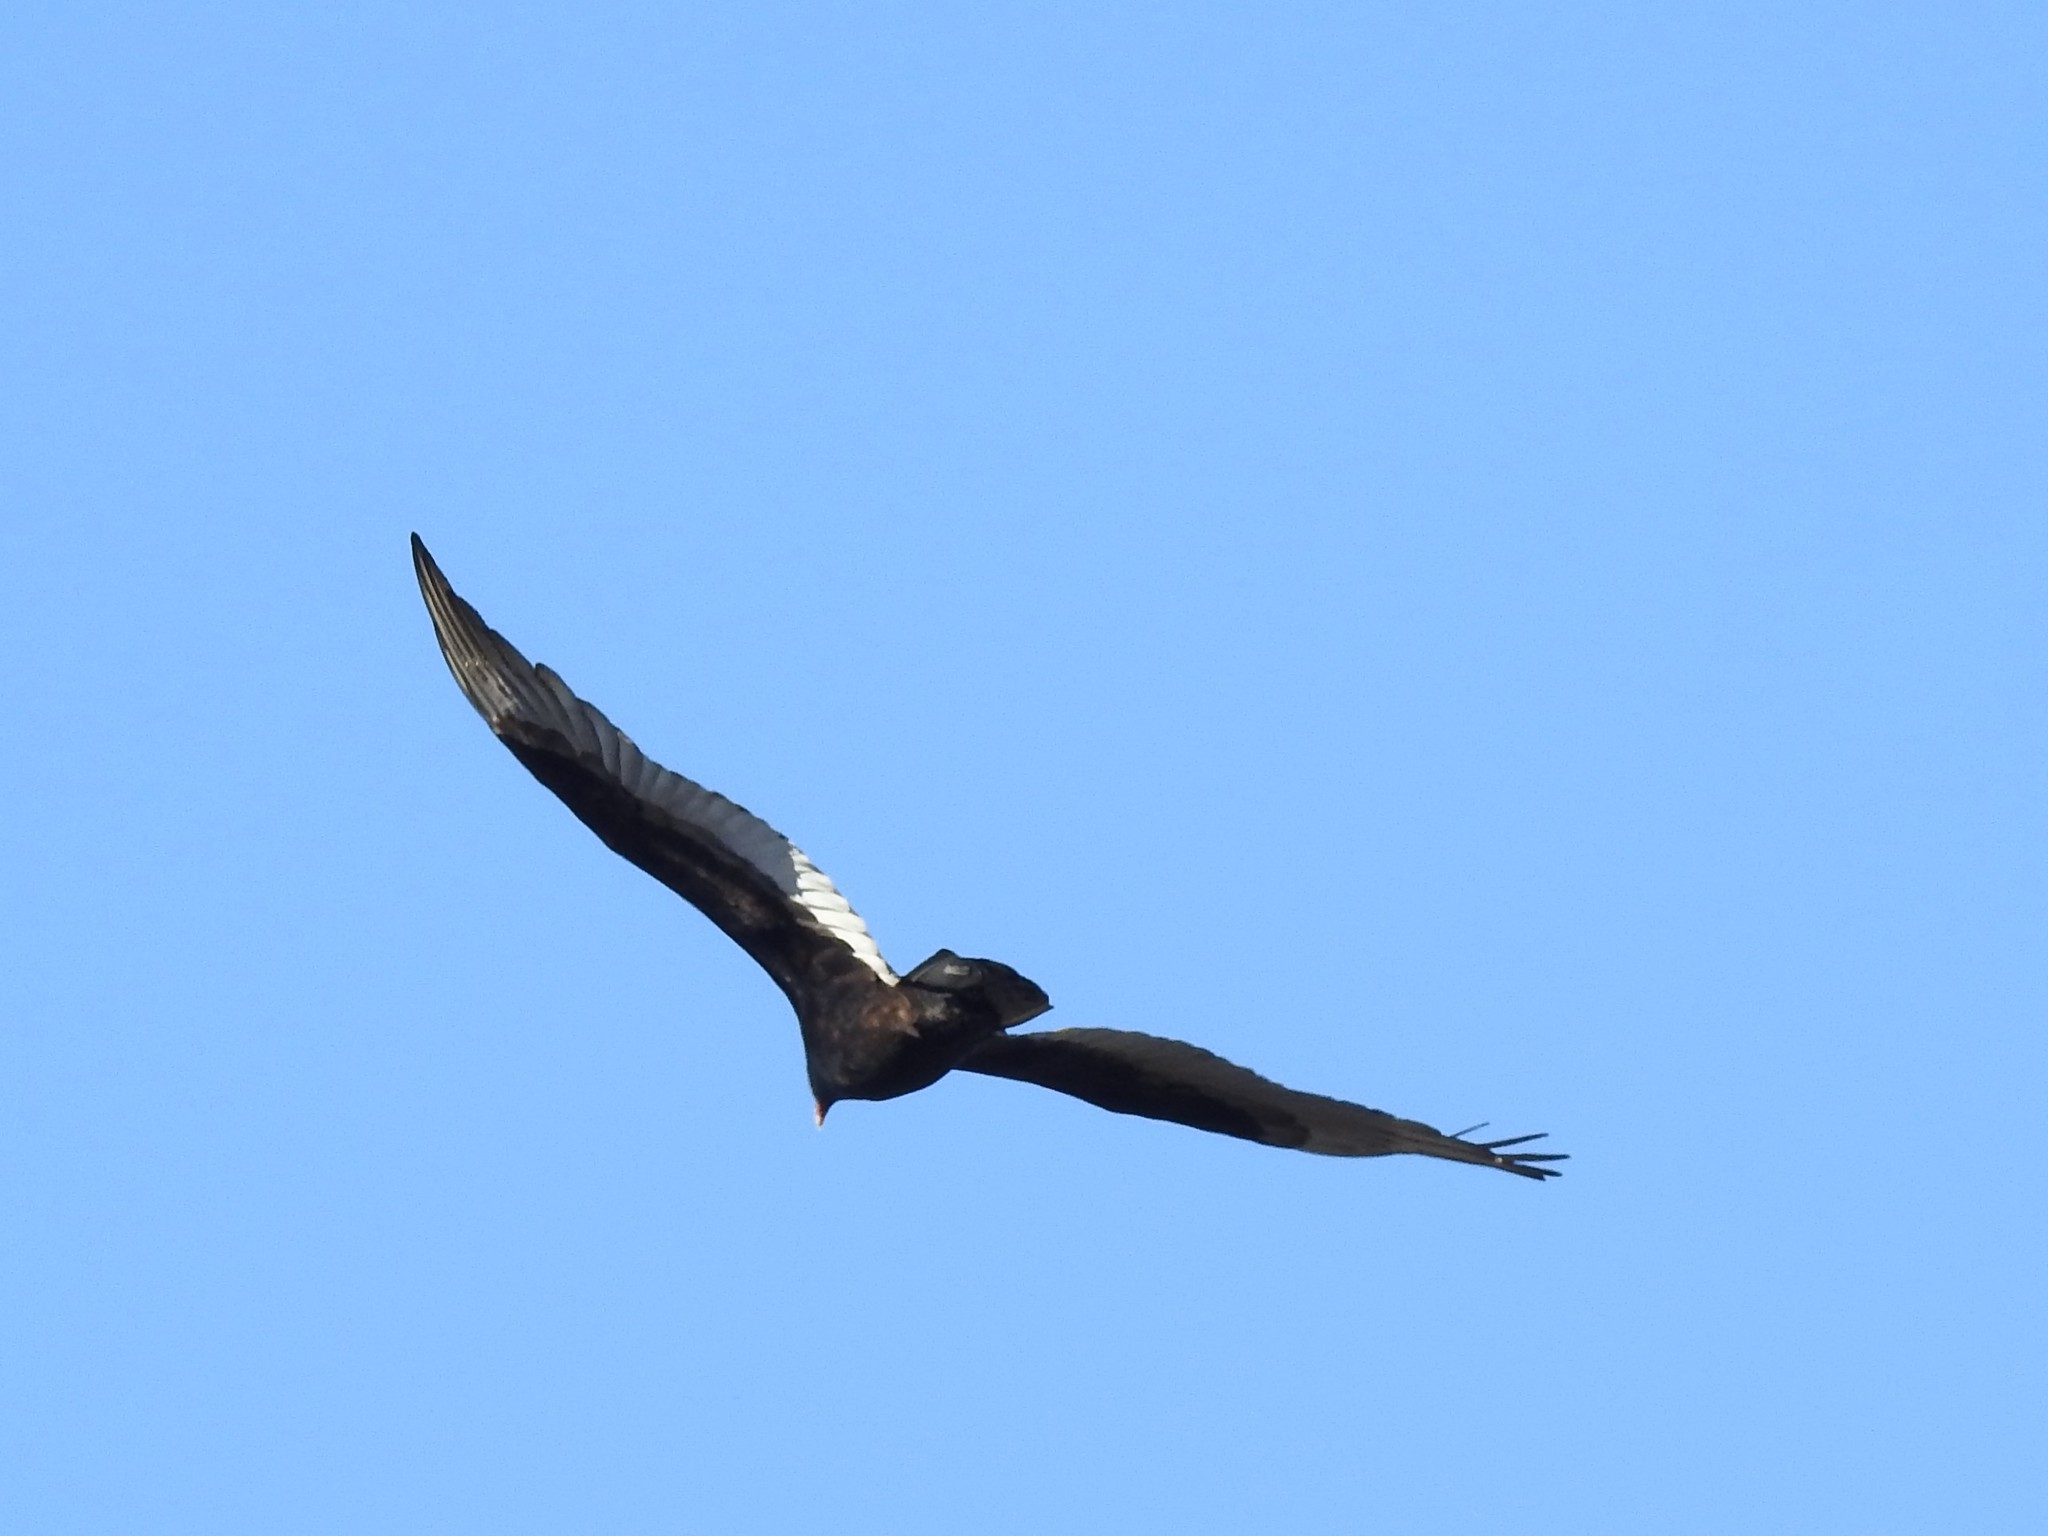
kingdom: Animalia
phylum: Chordata
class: Aves
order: Accipitriformes
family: Cathartidae
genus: Cathartes
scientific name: Cathartes aura
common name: Turkey vulture
